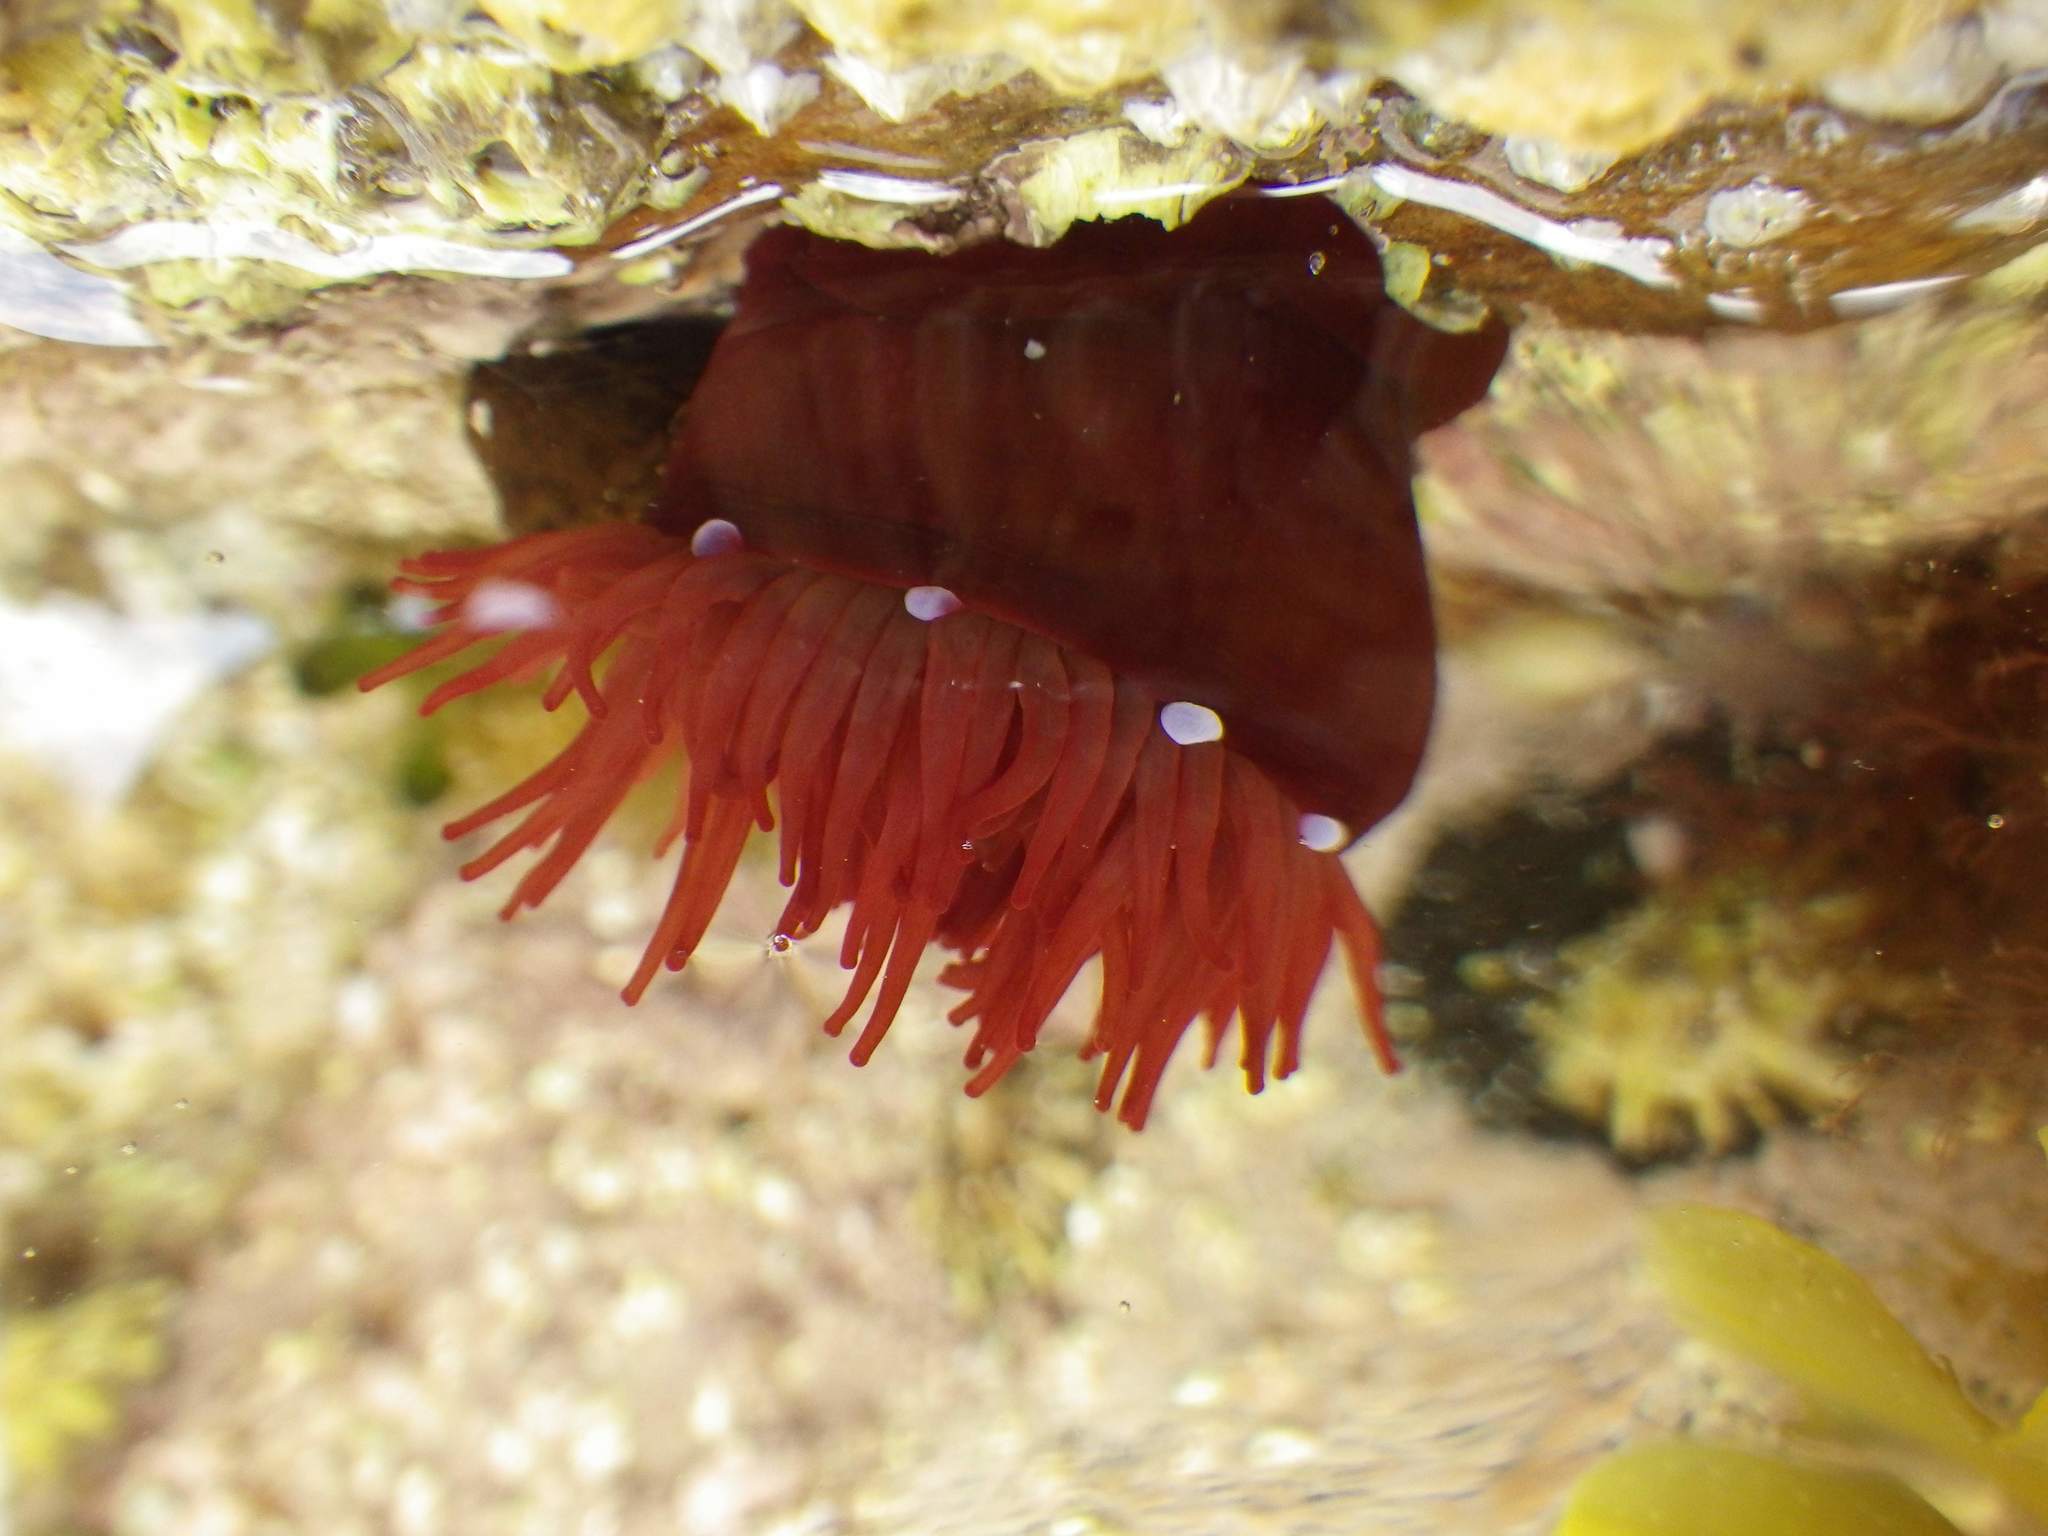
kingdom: Animalia
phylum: Cnidaria
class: Anthozoa
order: Actiniaria
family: Actiniidae
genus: Actinia
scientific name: Actinia equina
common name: Beadlet anemone
